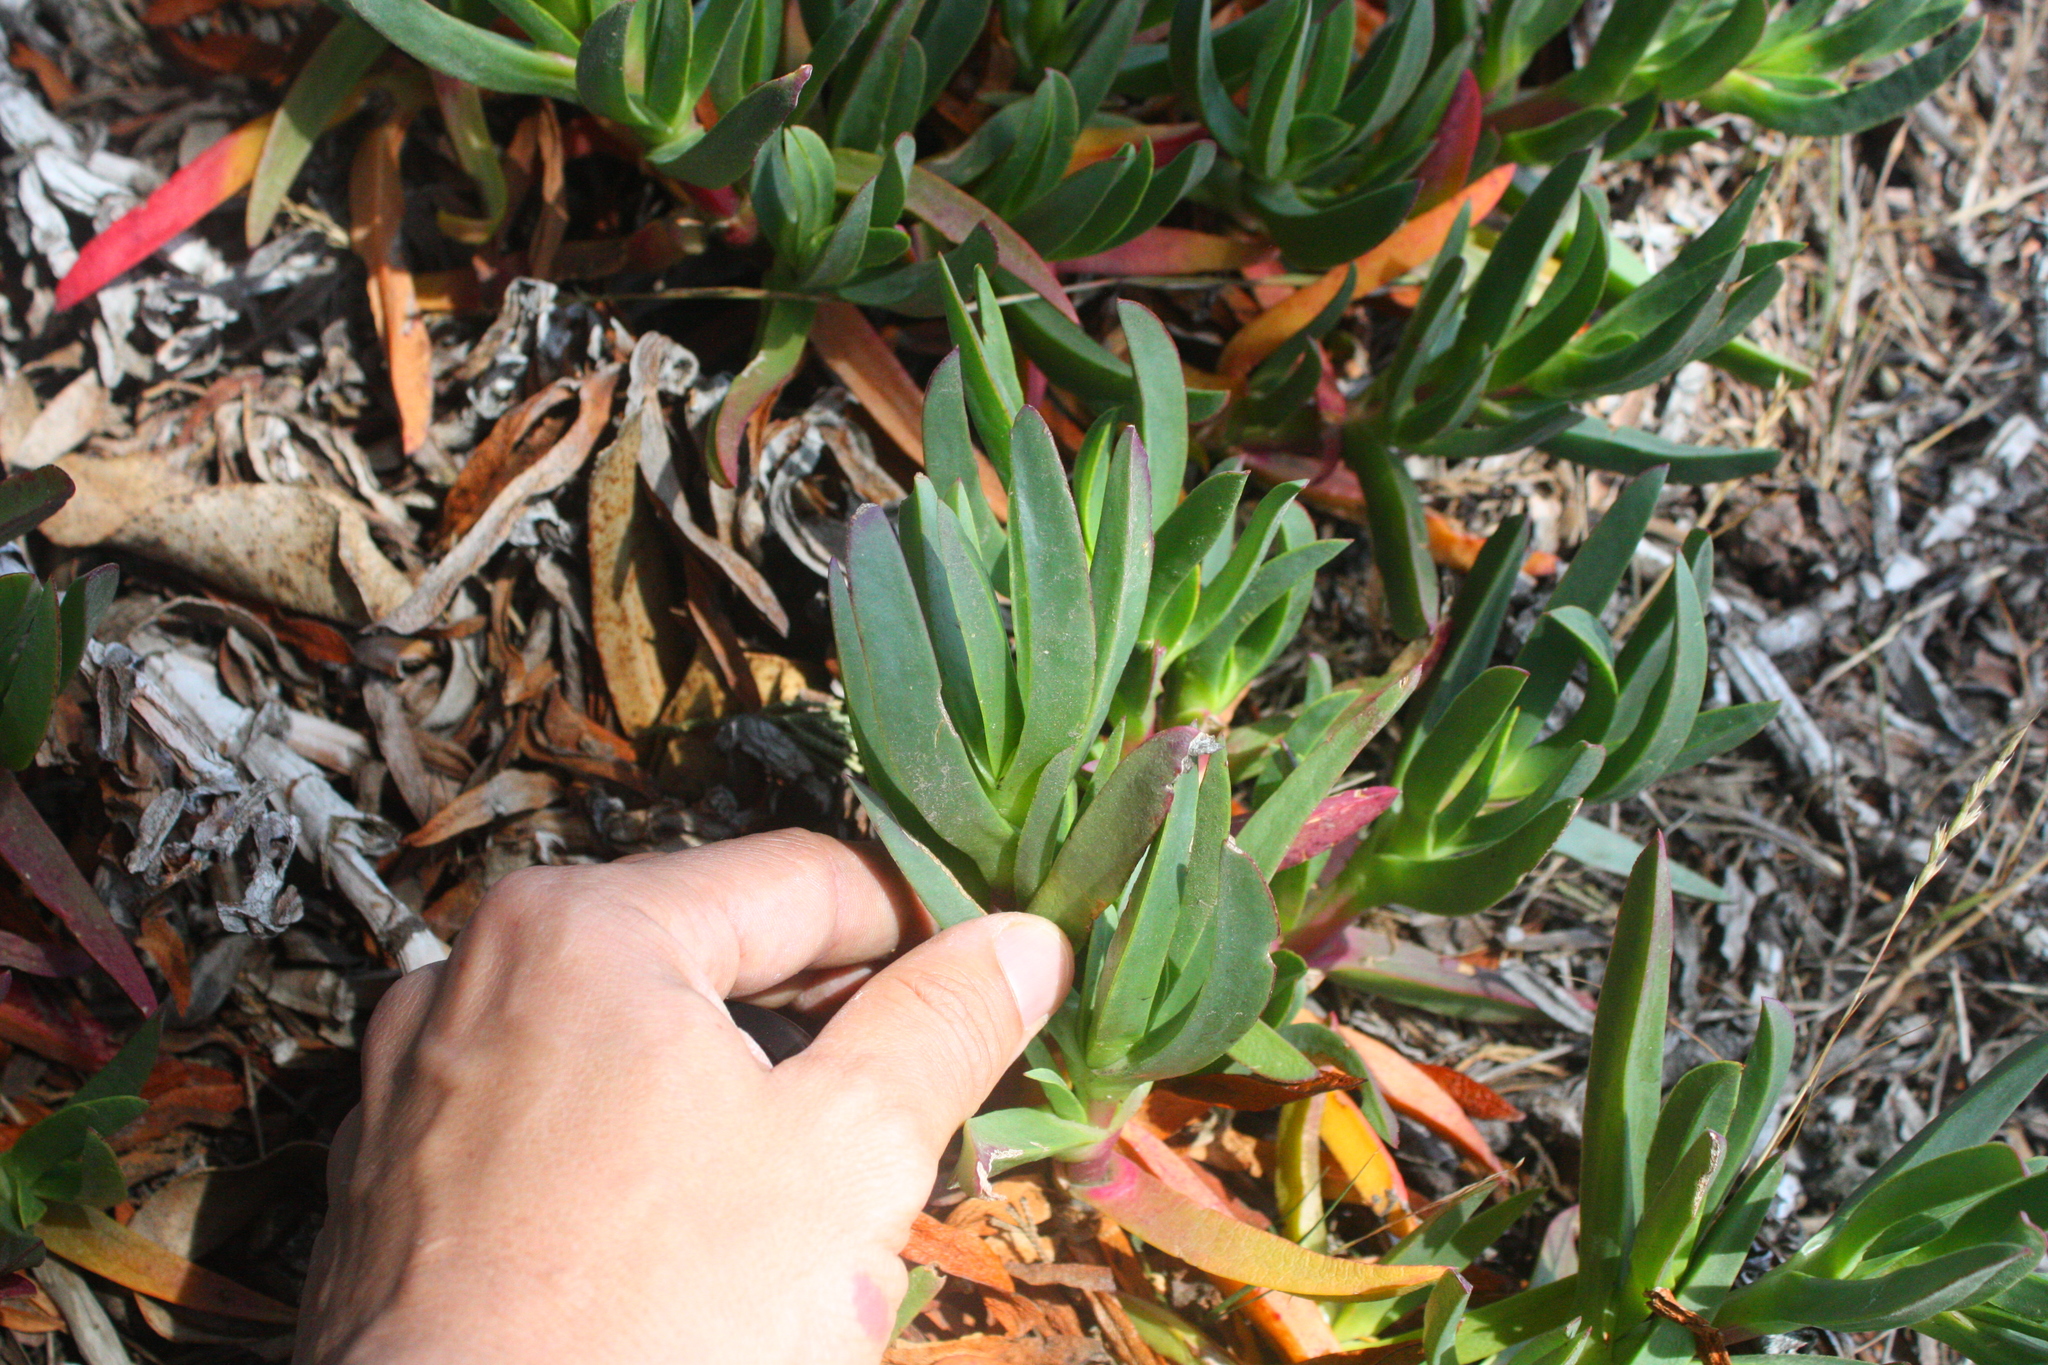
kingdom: Plantae
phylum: Tracheophyta
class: Magnoliopsida
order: Caryophyllales
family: Aizoaceae
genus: Carpobrotus
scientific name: Carpobrotus edulis
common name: Hottentot-fig
